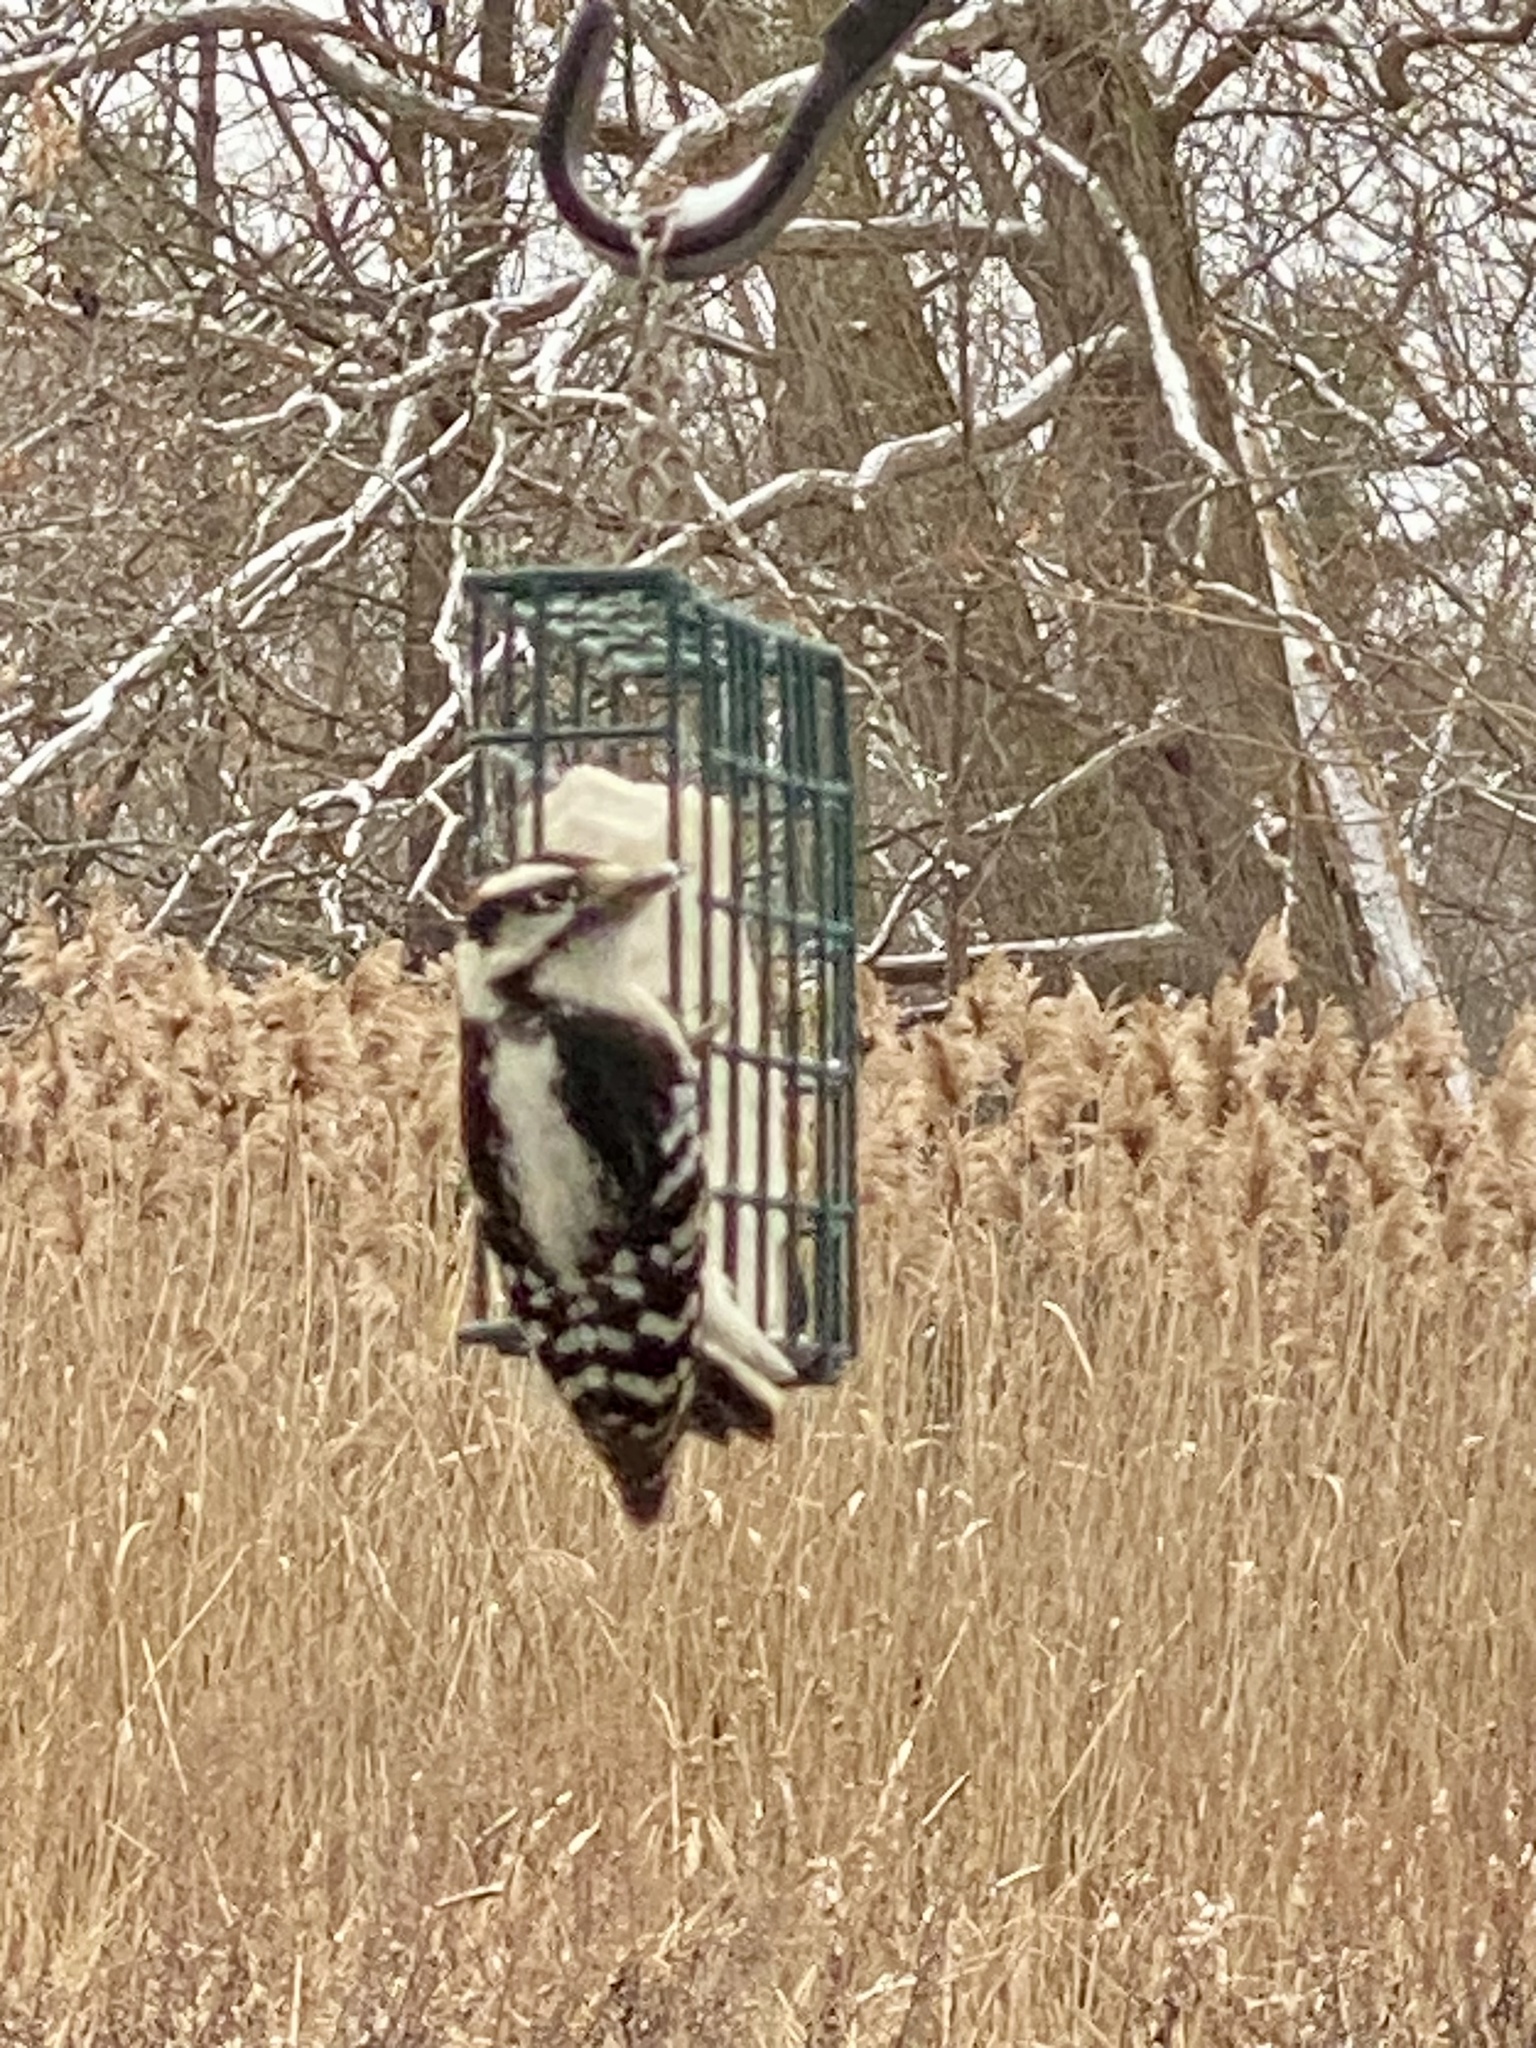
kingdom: Animalia
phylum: Chordata
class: Aves
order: Piciformes
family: Picidae
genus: Dryobates
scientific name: Dryobates pubescens
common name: Downy woodpecker
